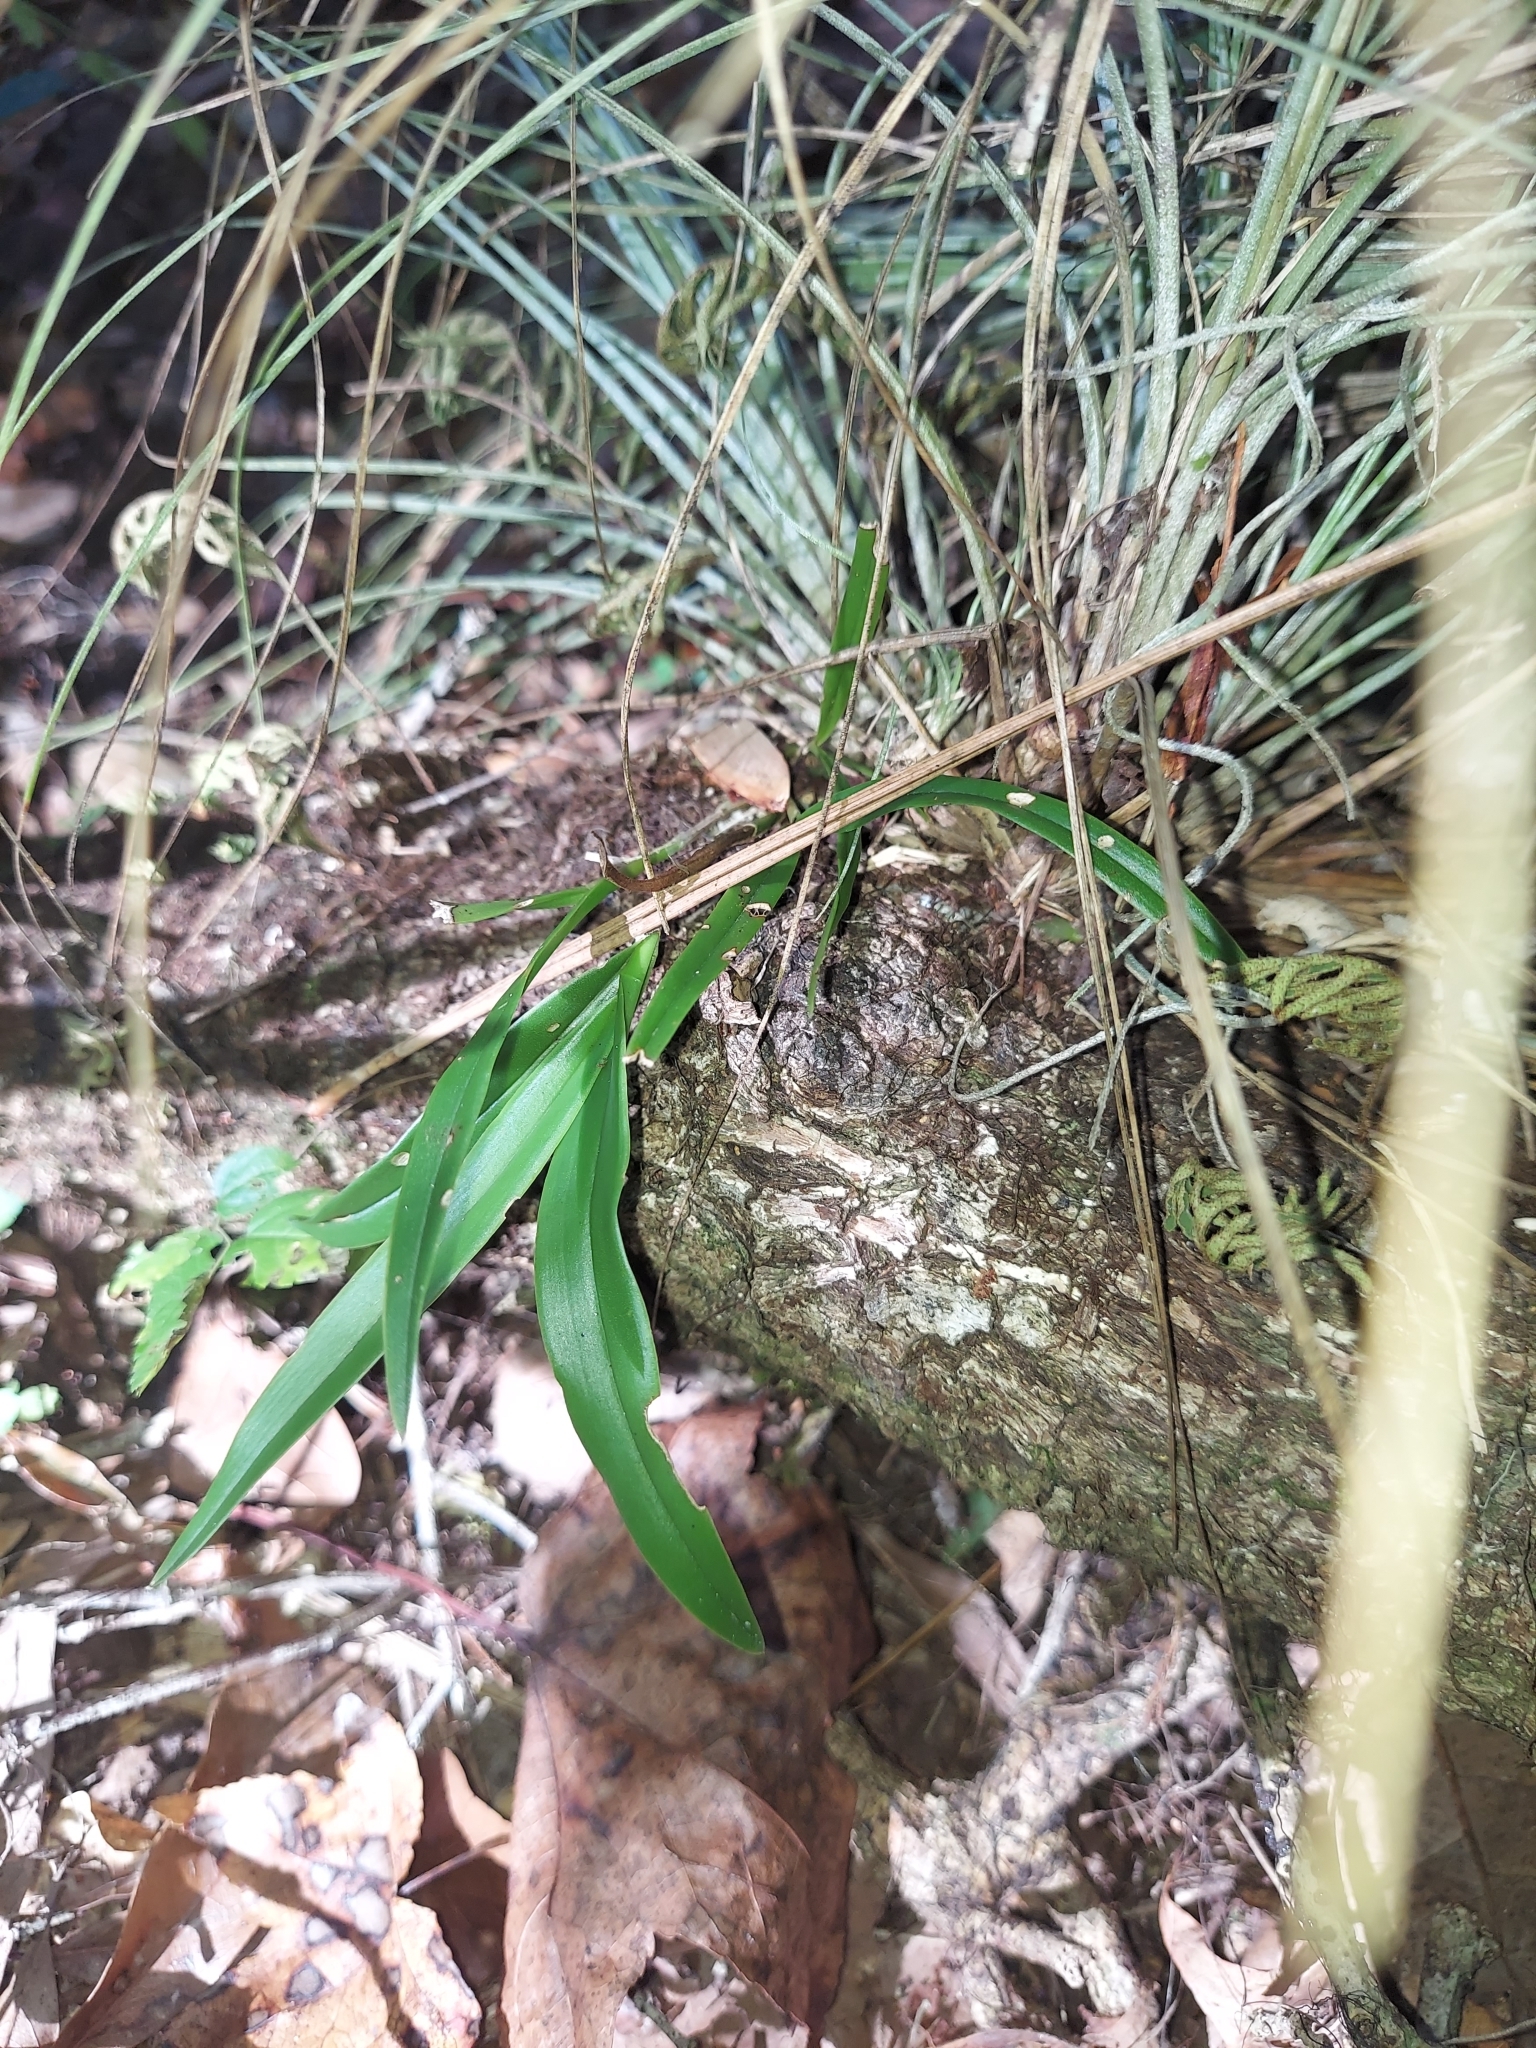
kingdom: Plantae
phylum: Tracheophyta
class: Liliopsida
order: Asparagales
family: Orchidaceae
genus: Epidendrum
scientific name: Epidendrum conopseum
